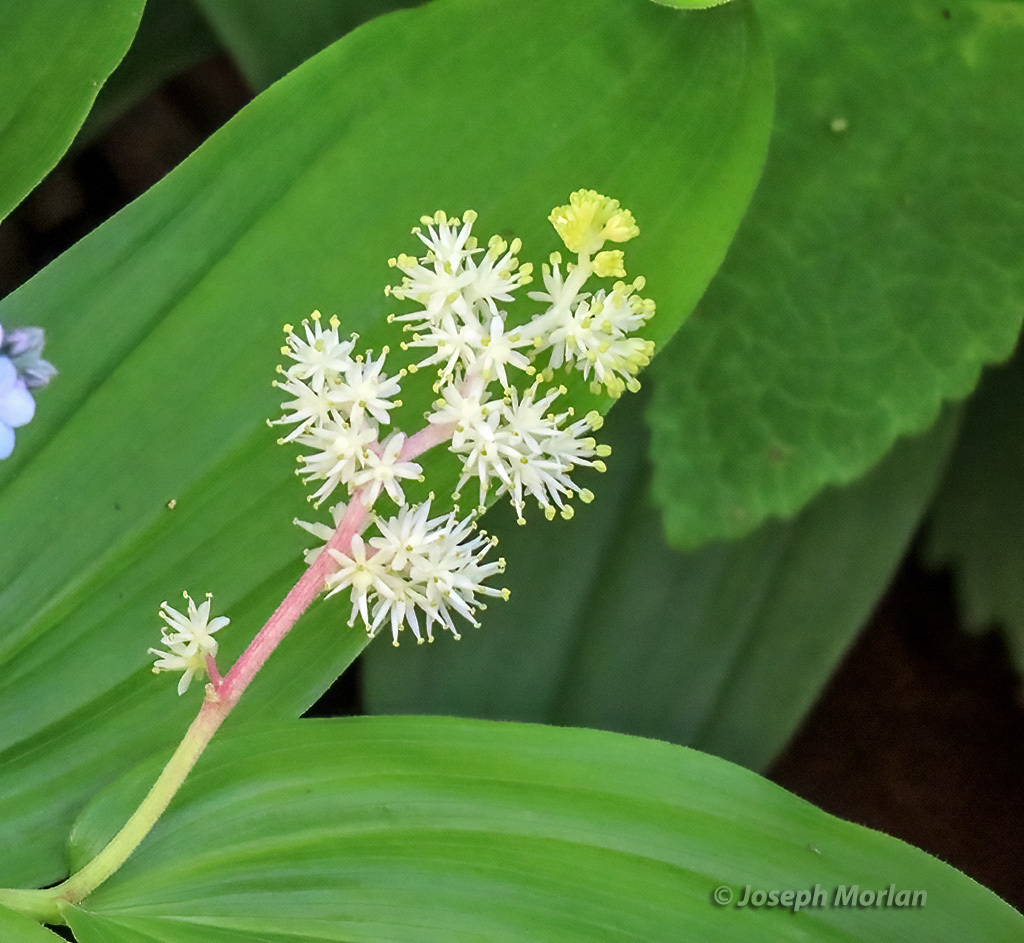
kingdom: Plantae
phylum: Tracheophyta
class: Liliopsida
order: Asparagales
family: Asparagaceae
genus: Maianthemum
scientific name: Maianthemum racemosum
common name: False spikenard
